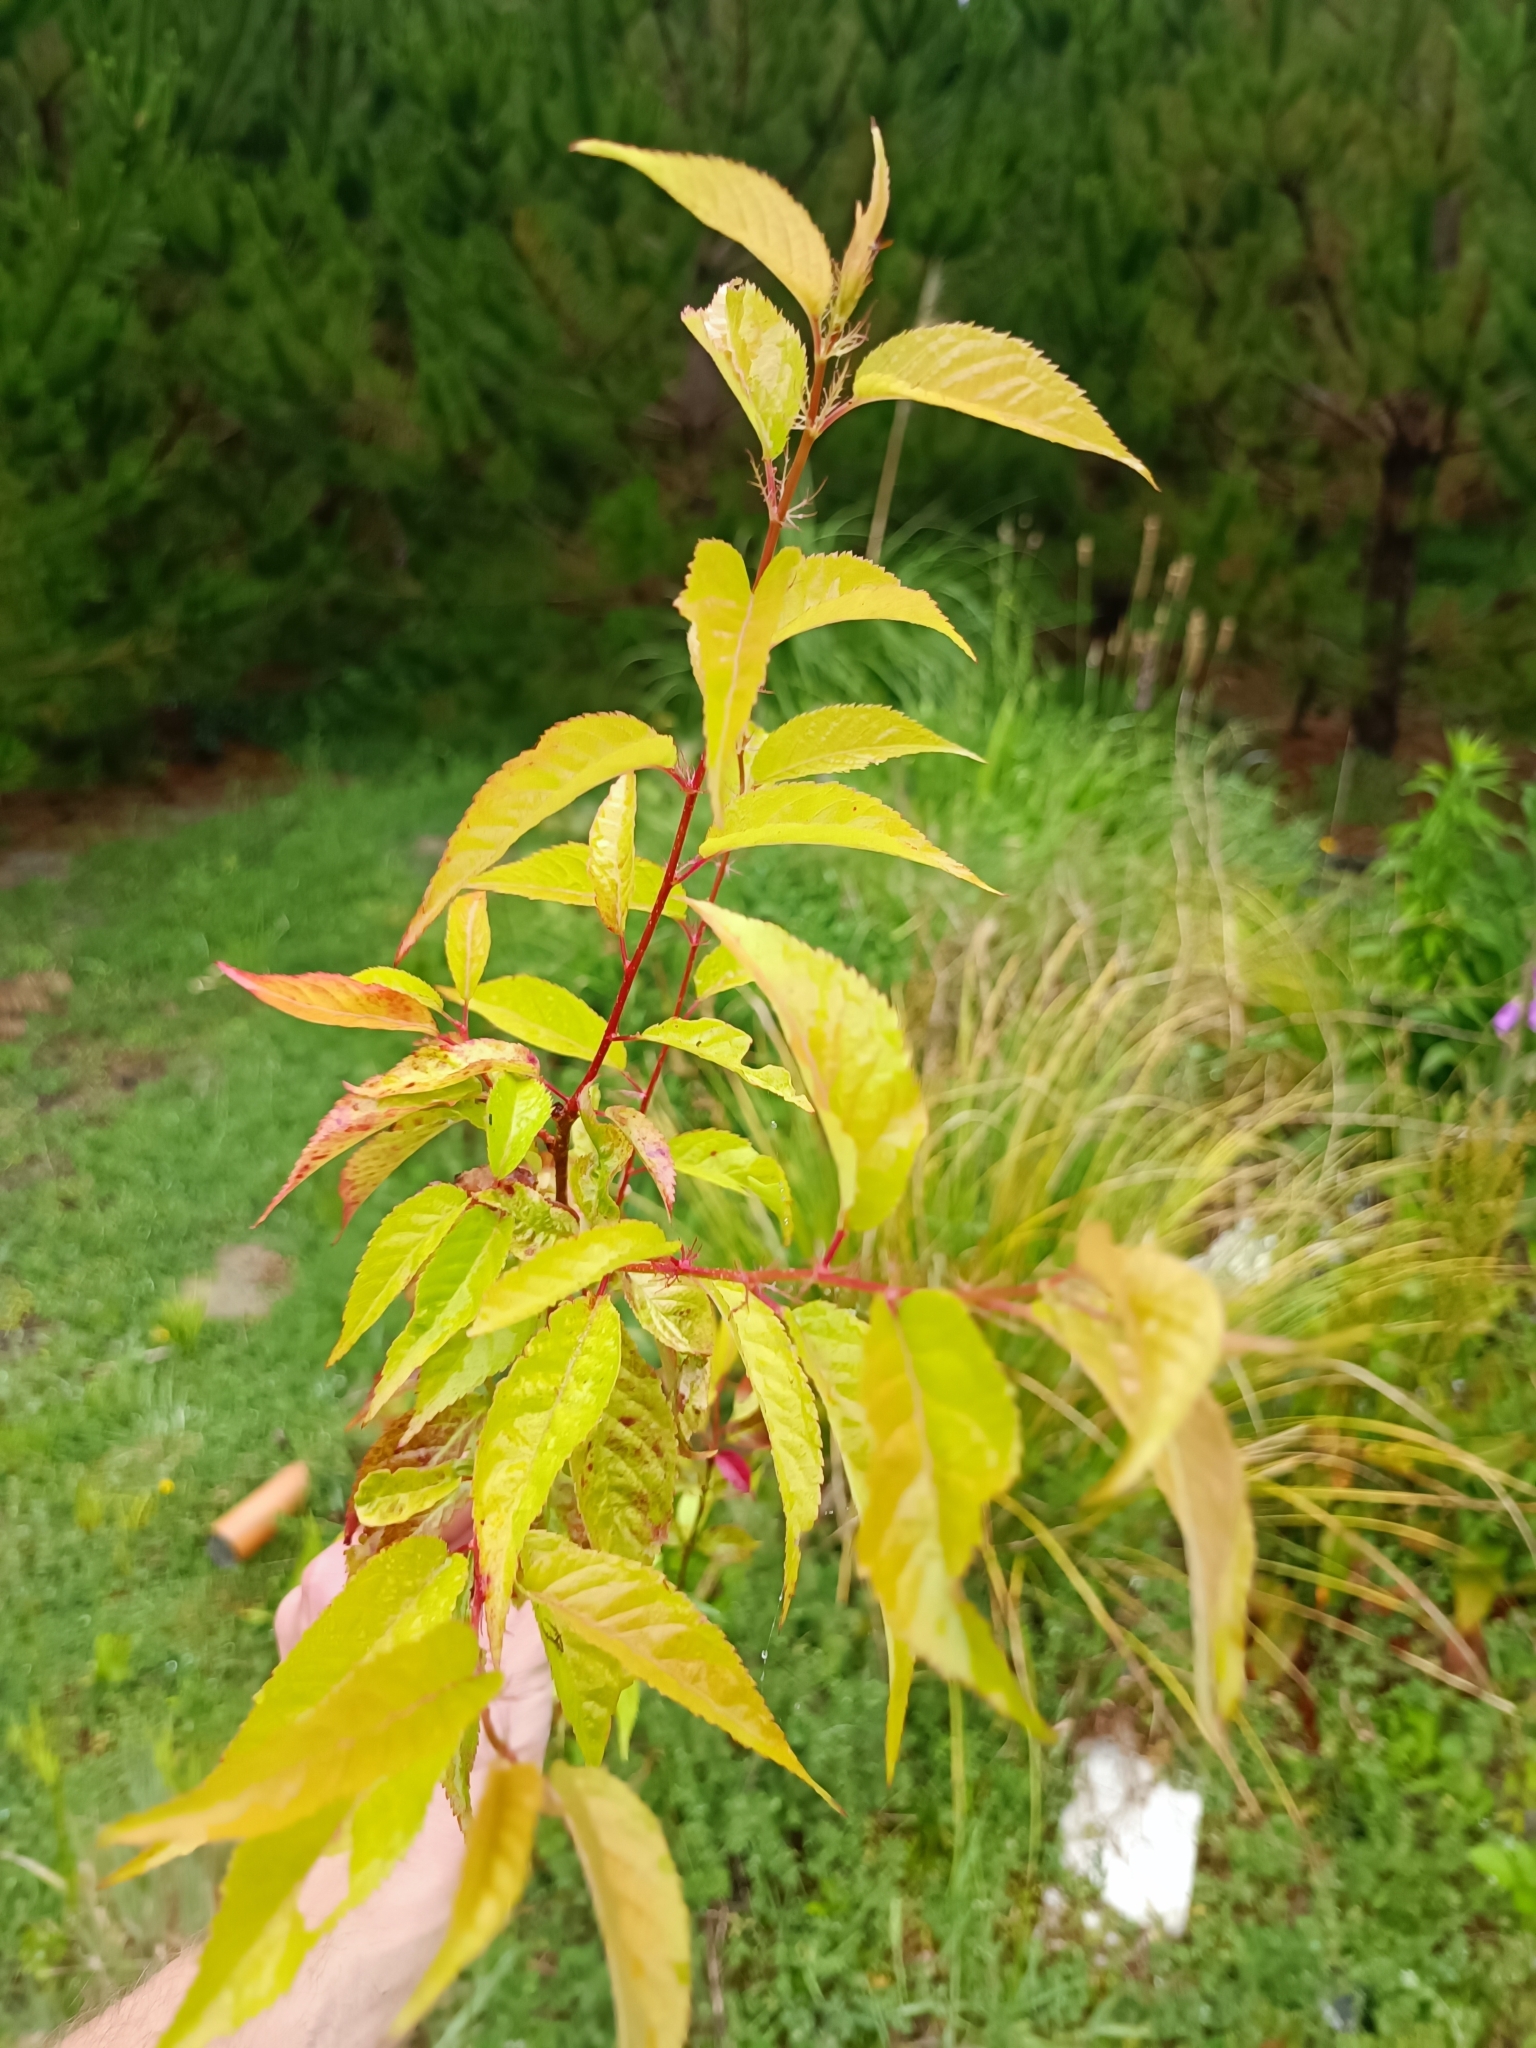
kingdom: Plantae
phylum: Tracheophyta
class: Magnoliopsida
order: Rosales
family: Rosaceae
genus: Prunus
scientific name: Prunus campanulata
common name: Taiwan flowering cherry
